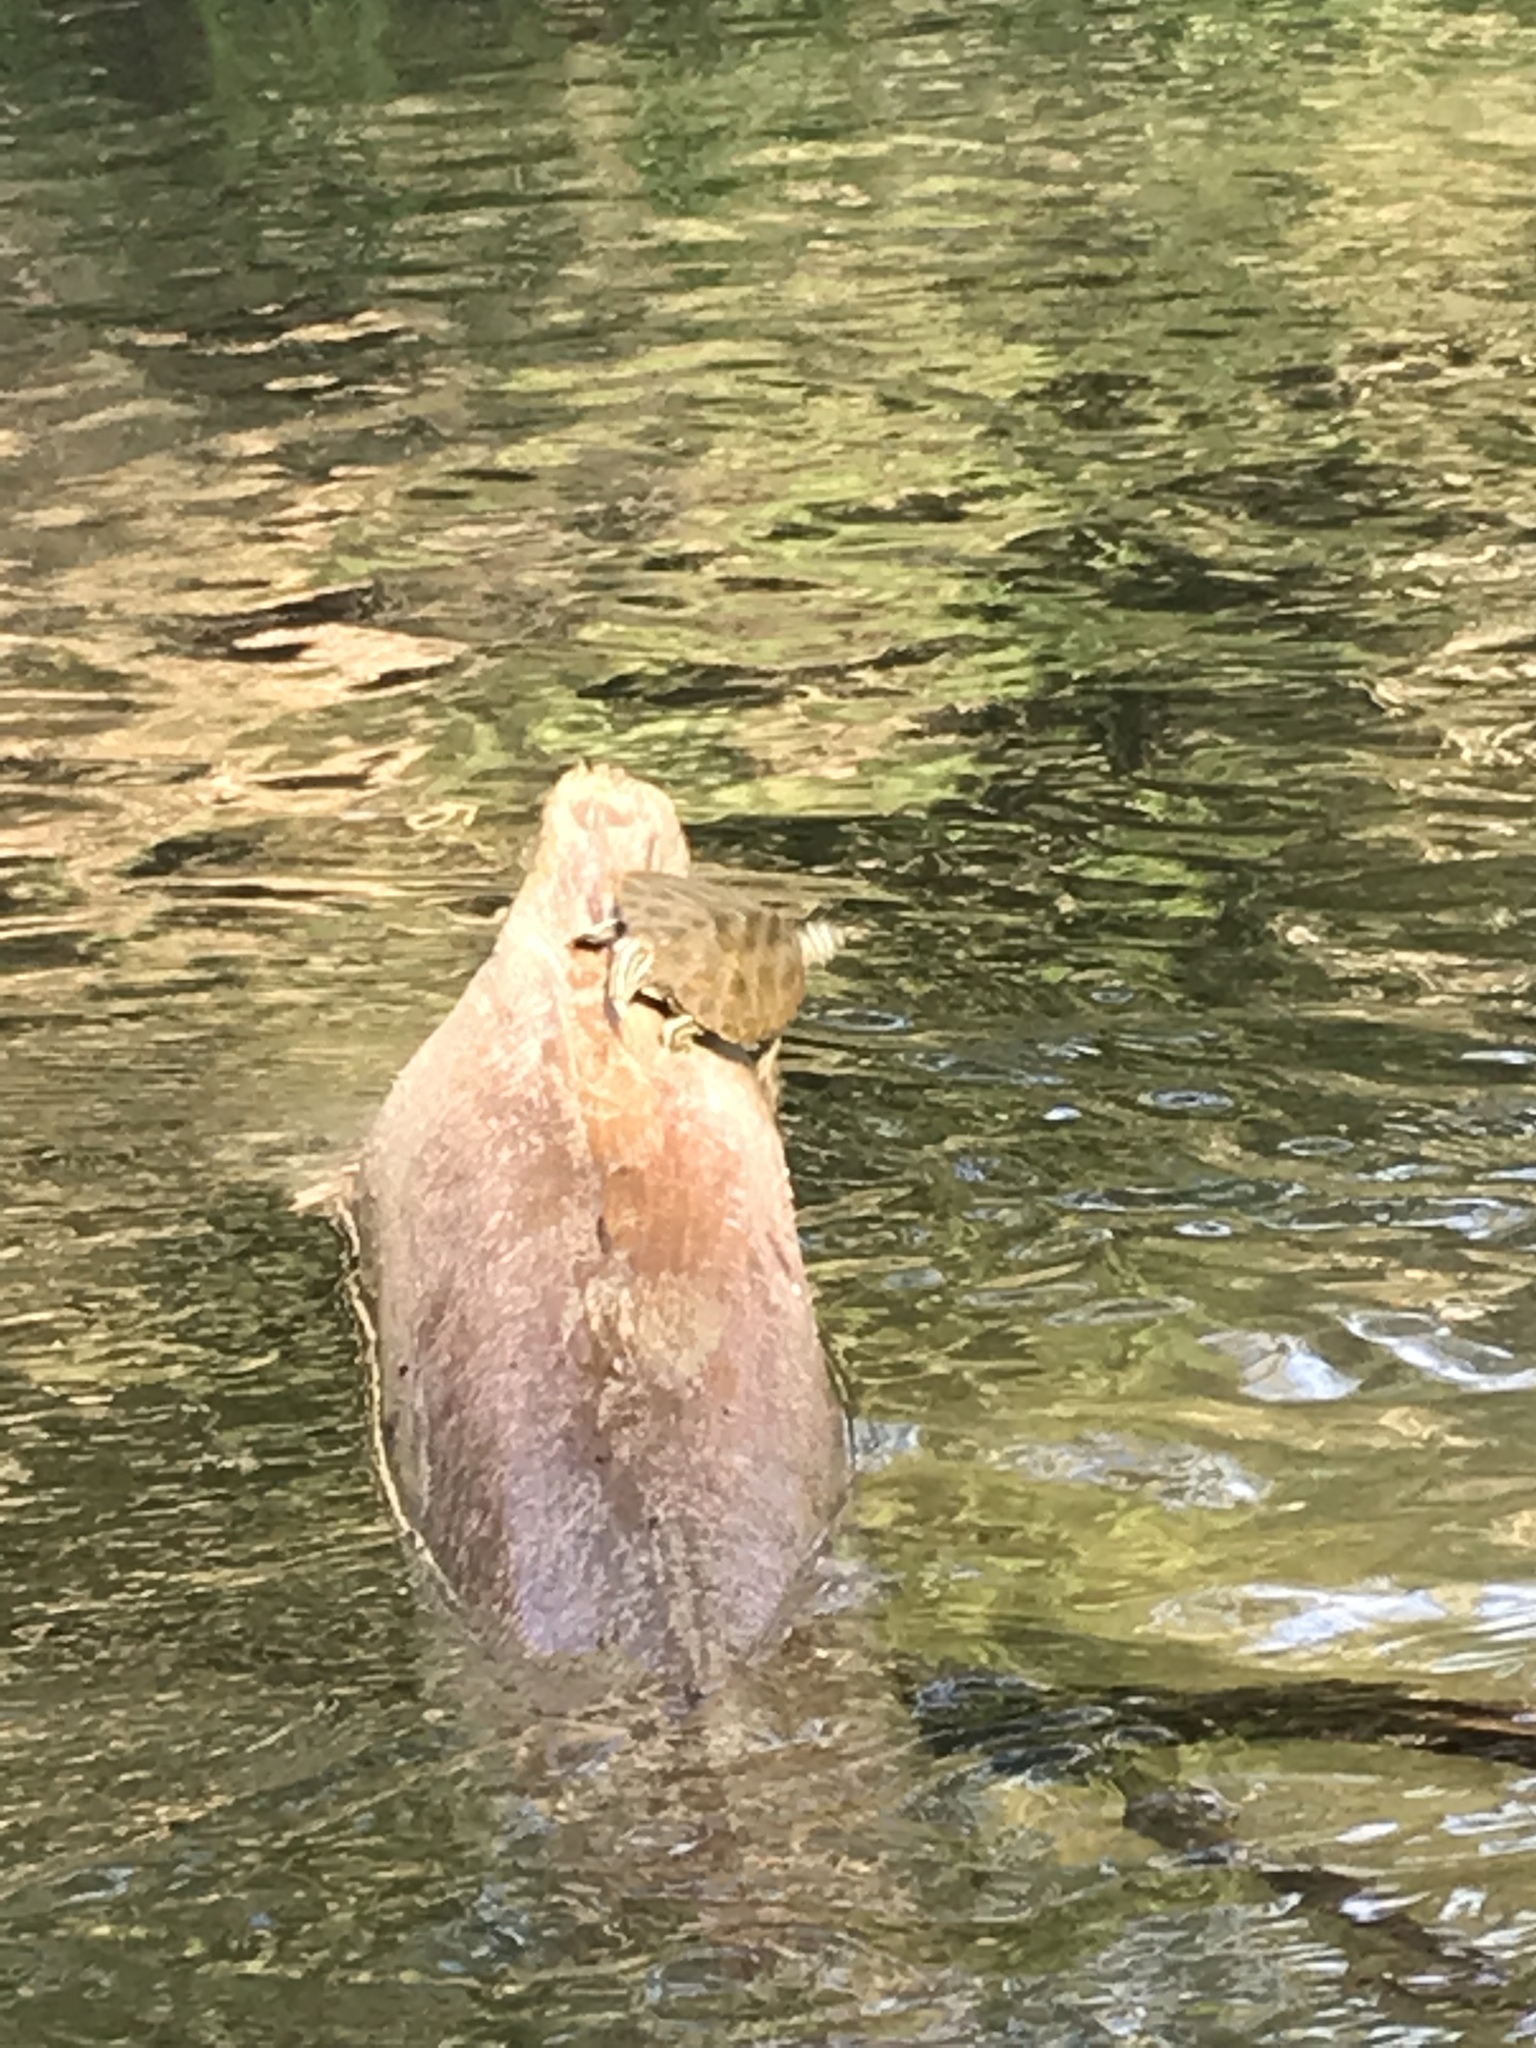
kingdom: Animalia
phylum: Chordata
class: Testudines
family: Emydidae
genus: Graptemys
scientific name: Graptemys caglei
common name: Cagle's map turtle
